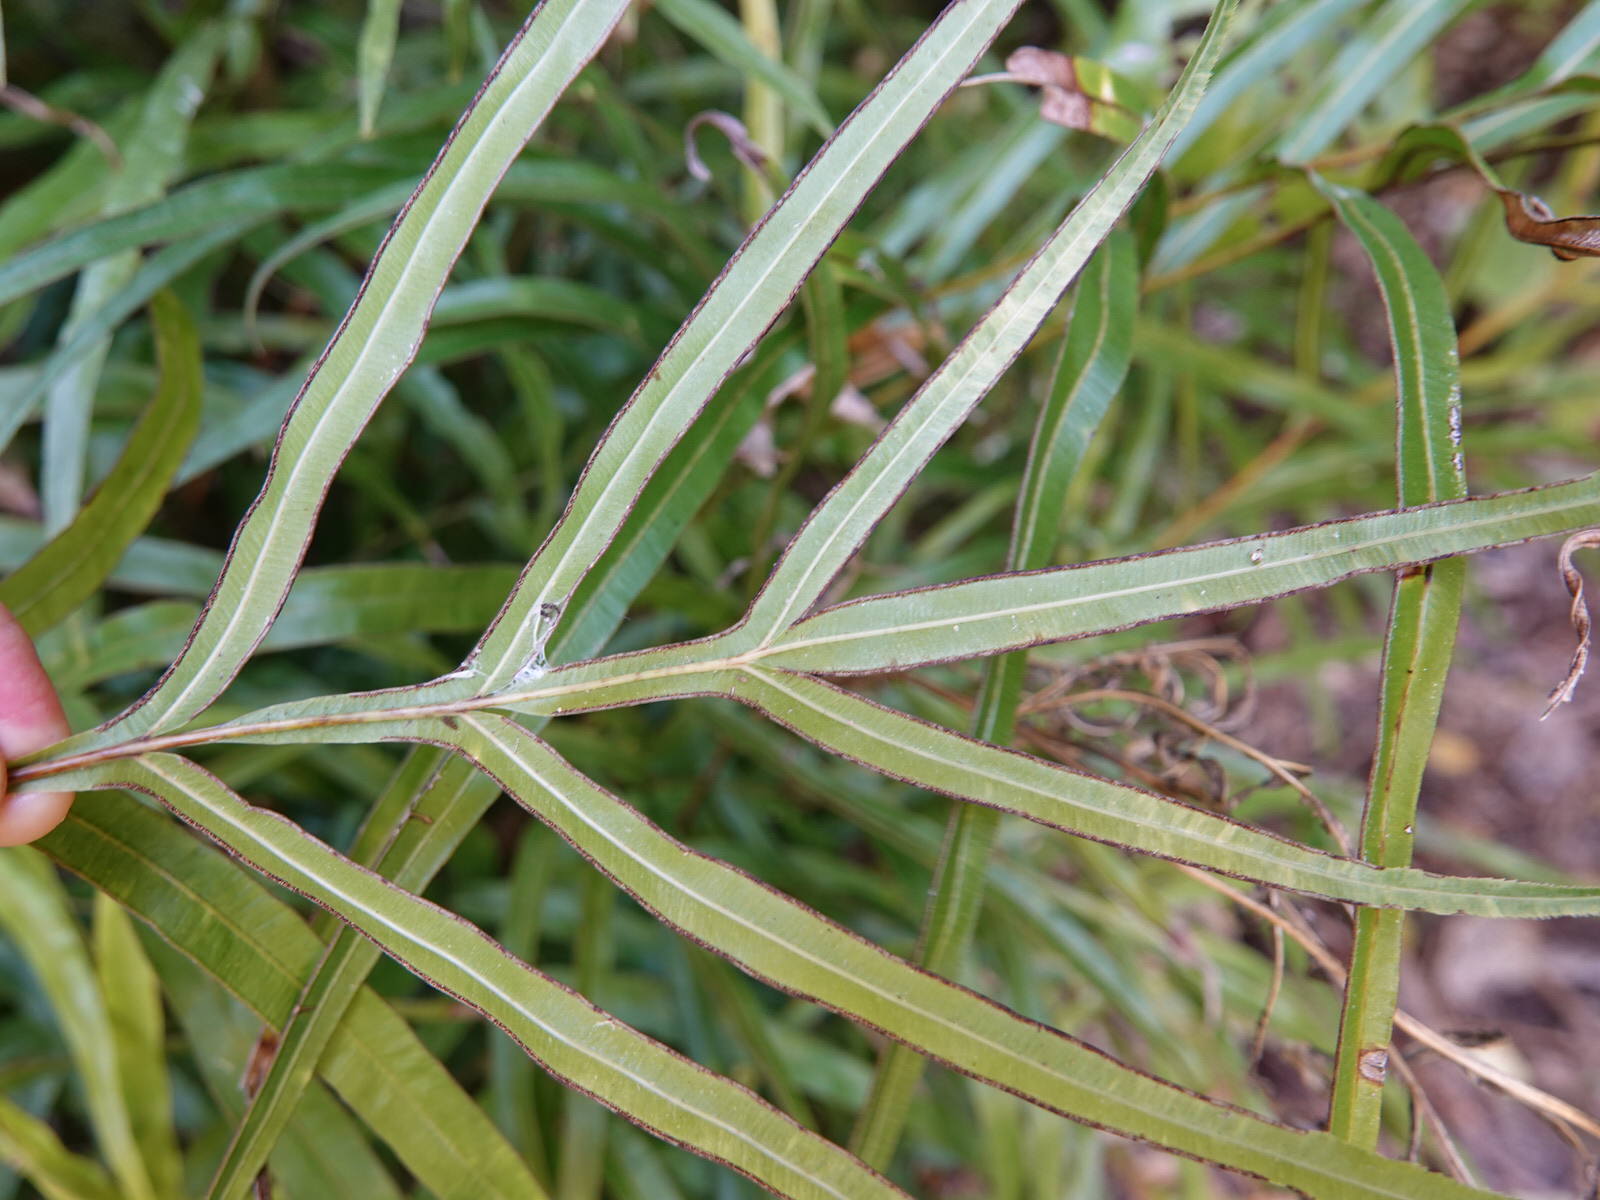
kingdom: Plantae
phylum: Tracheophyta
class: Polypodiopsida
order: Polypodiales
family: Pteridaceae
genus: Pteris
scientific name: Pteris cretica
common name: Ribbon fern
